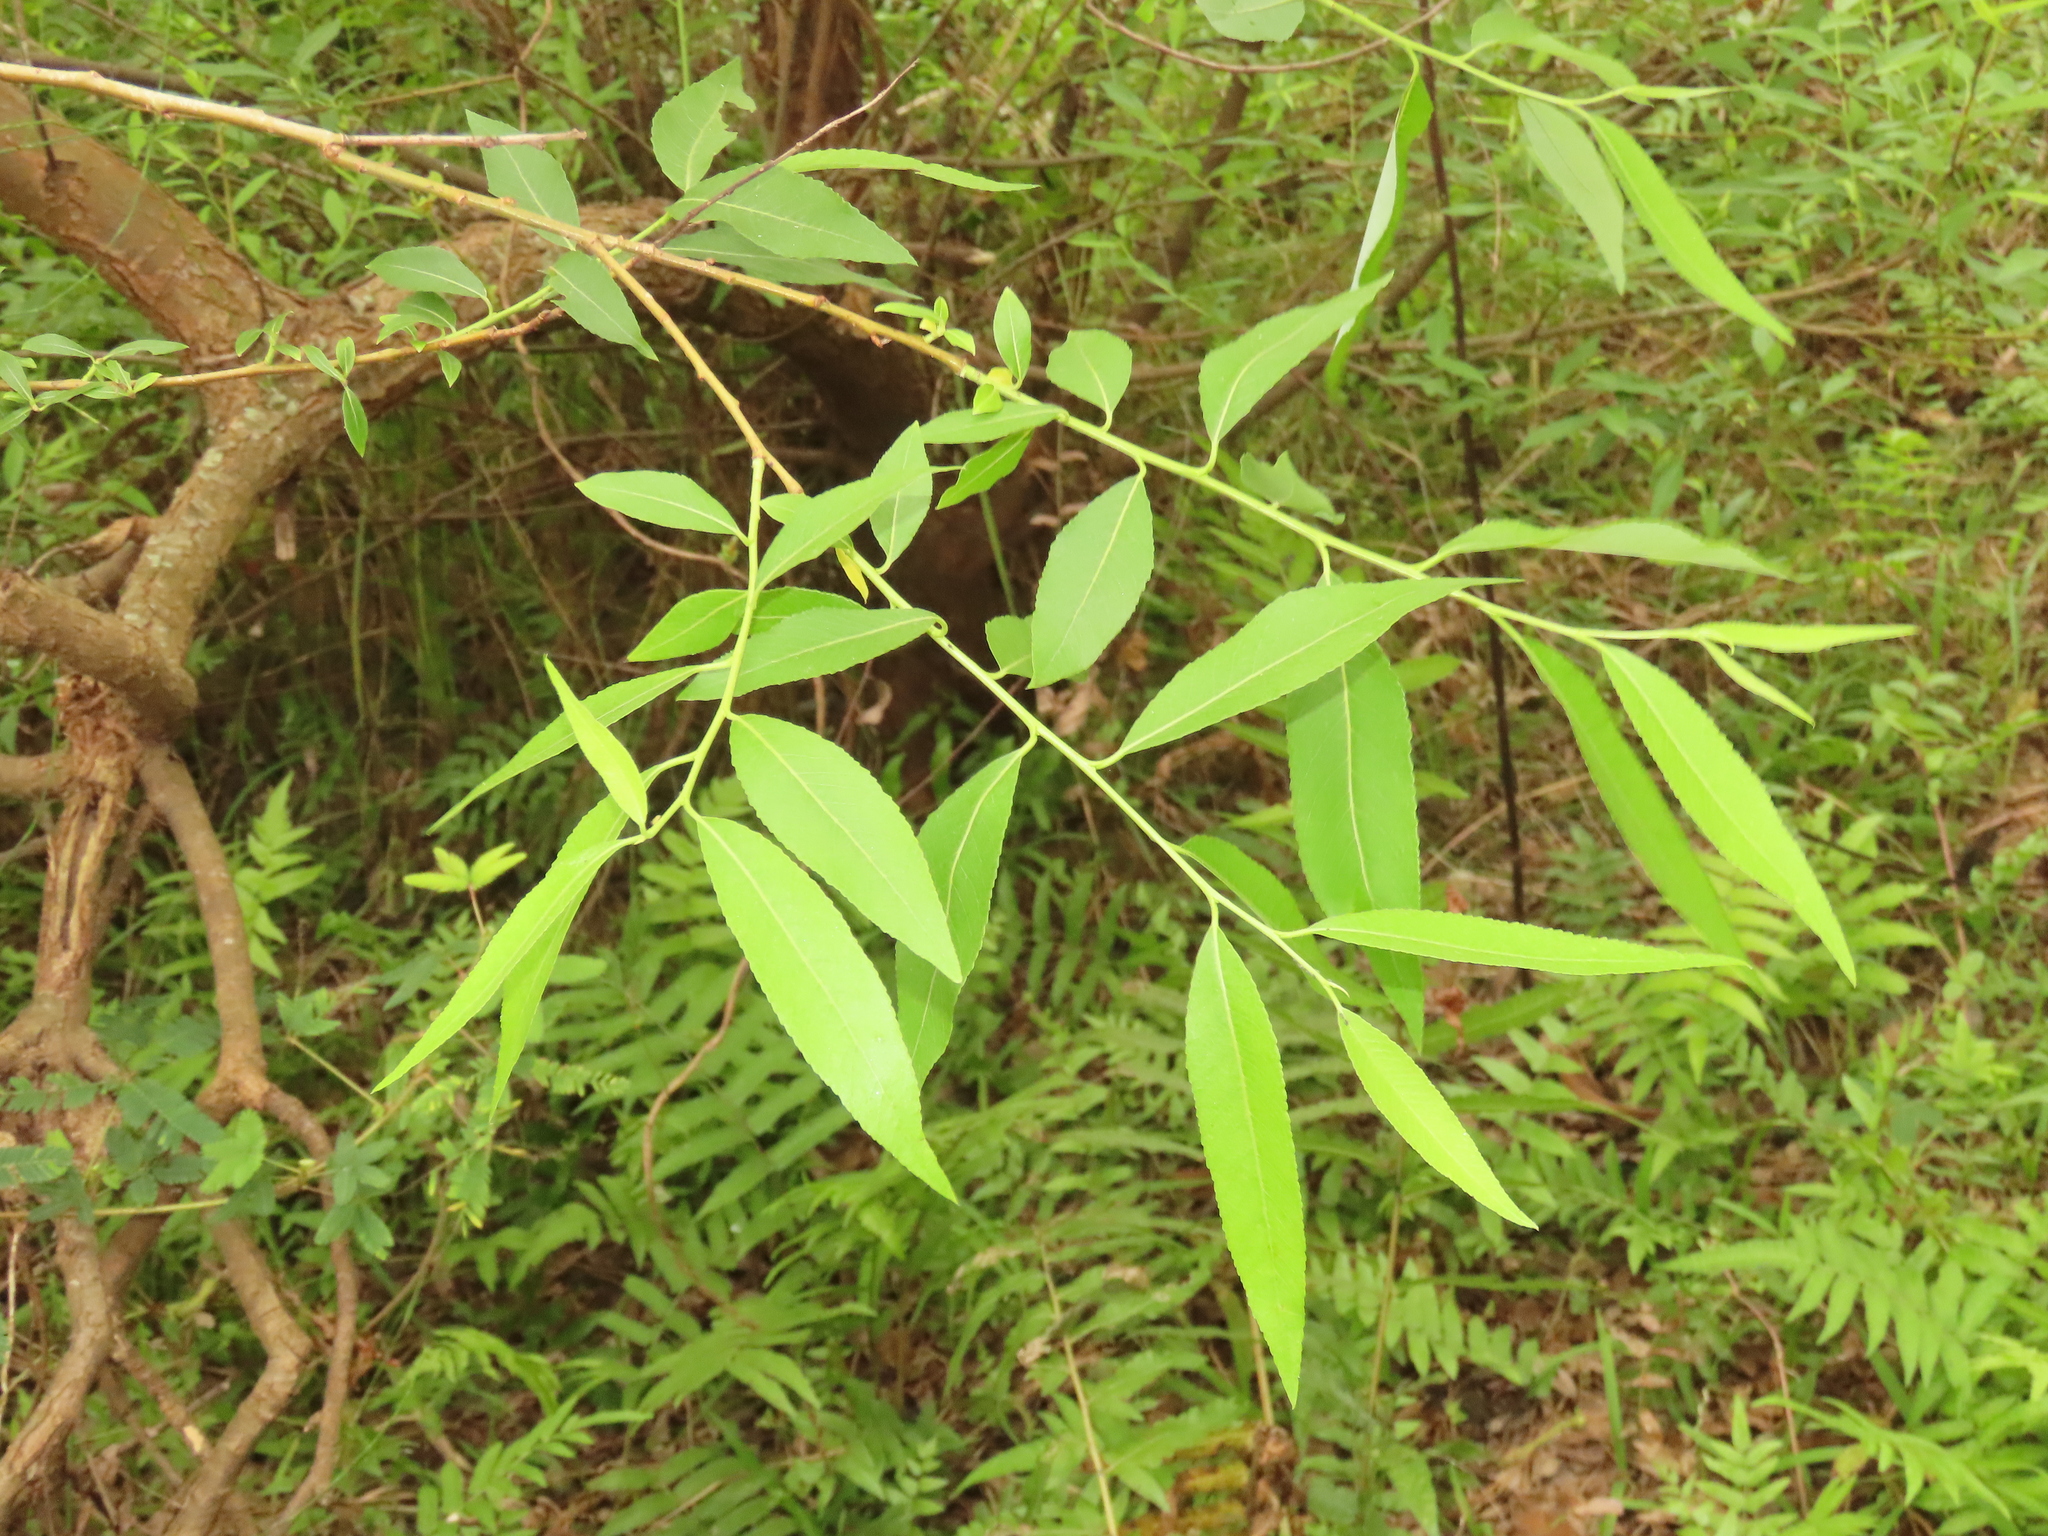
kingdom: Plantae
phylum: Tracheophyta
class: Magnoliopsida
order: Malpighiales
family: Salicaceae
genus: Salix
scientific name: Salix mesnyi
